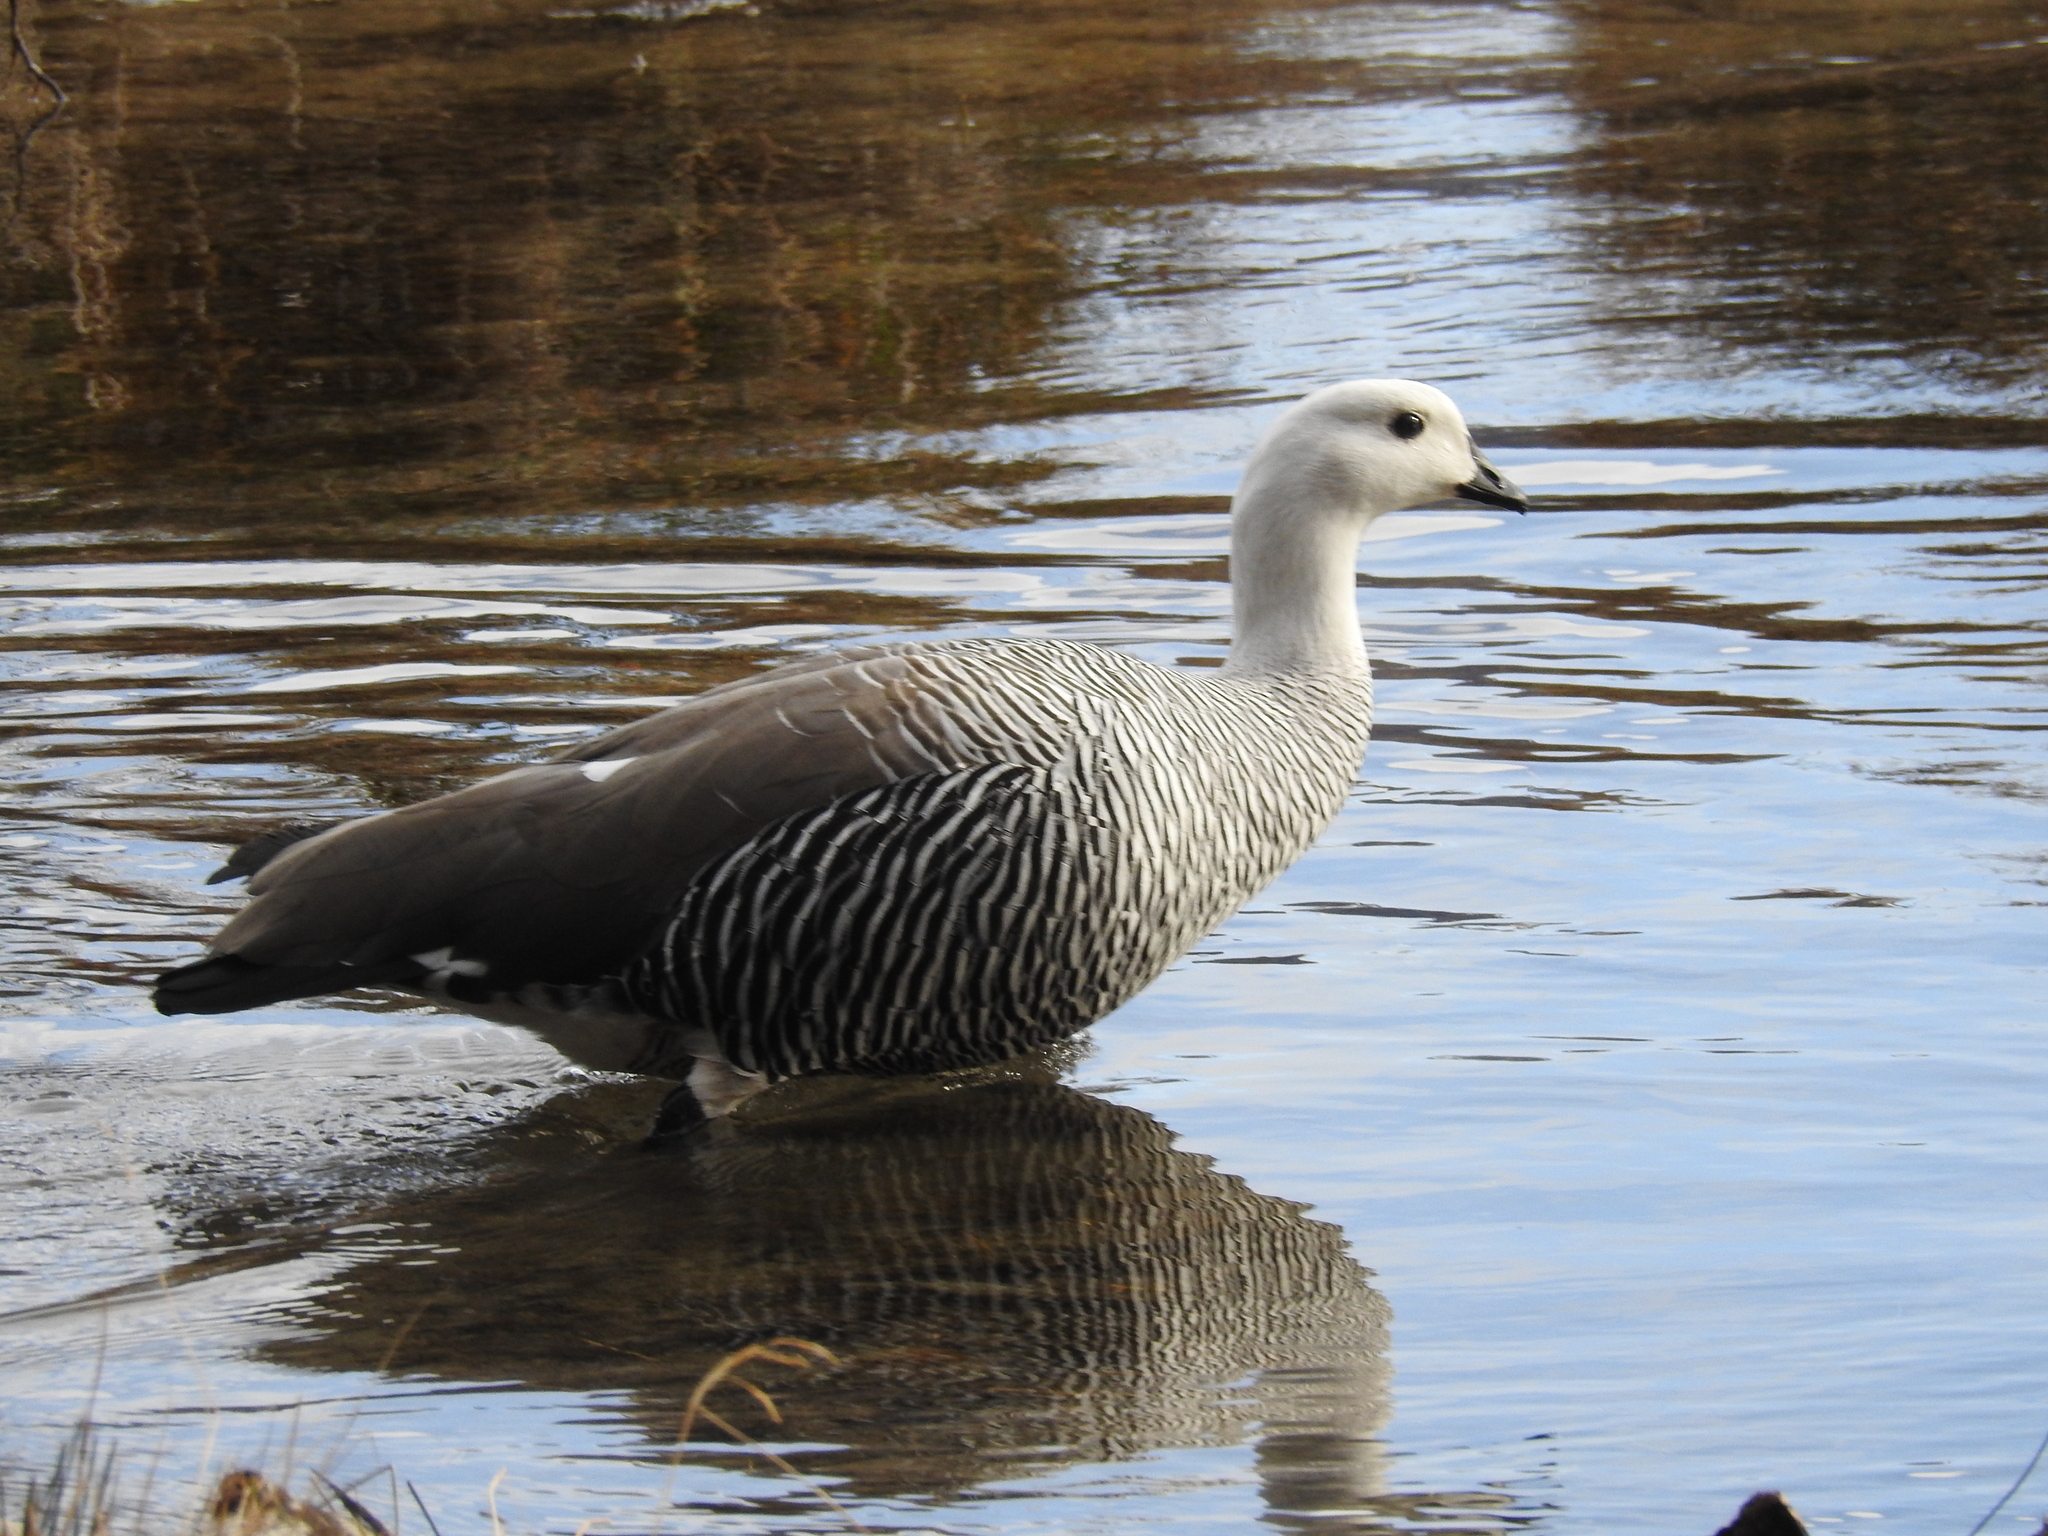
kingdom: Animalia
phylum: Chordata
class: Aves
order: Anseriformes
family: Anatidae
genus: Chloephaga
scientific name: Chloephaga picta
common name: Upland goose
